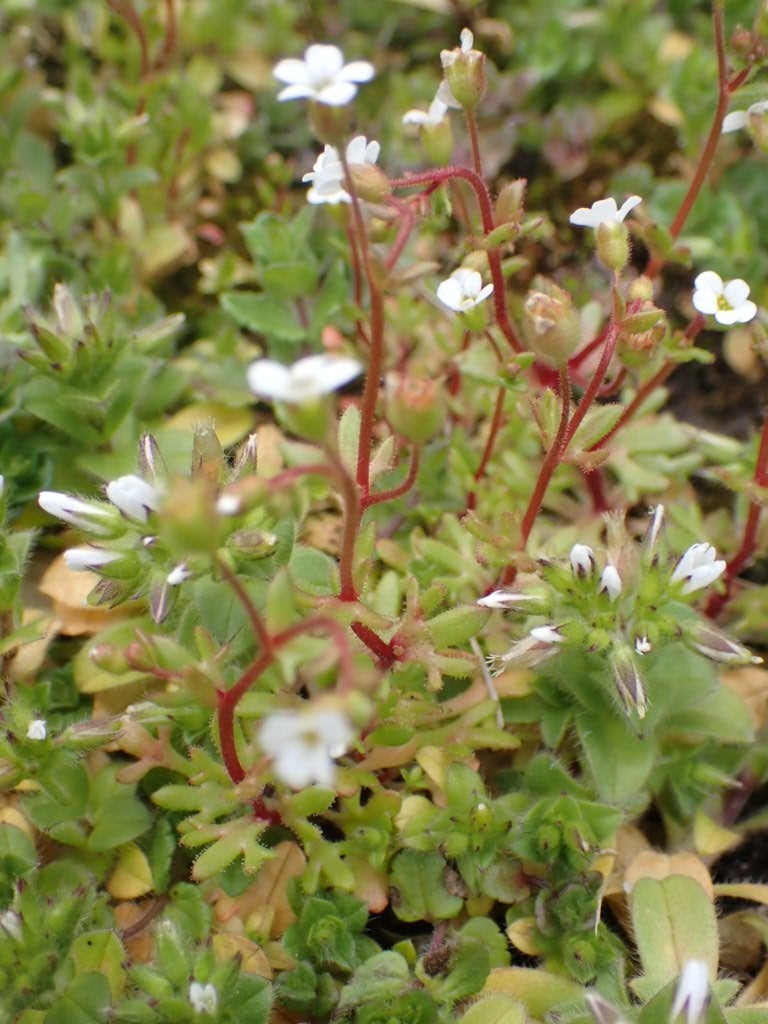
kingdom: Plantae
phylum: Tracheophyta
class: Magnoliopsida
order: Saxifragales
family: Saxifragaceae
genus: Saxifraga
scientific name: Saxifraga tridactylites
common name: Rue-leaved saxifrage
